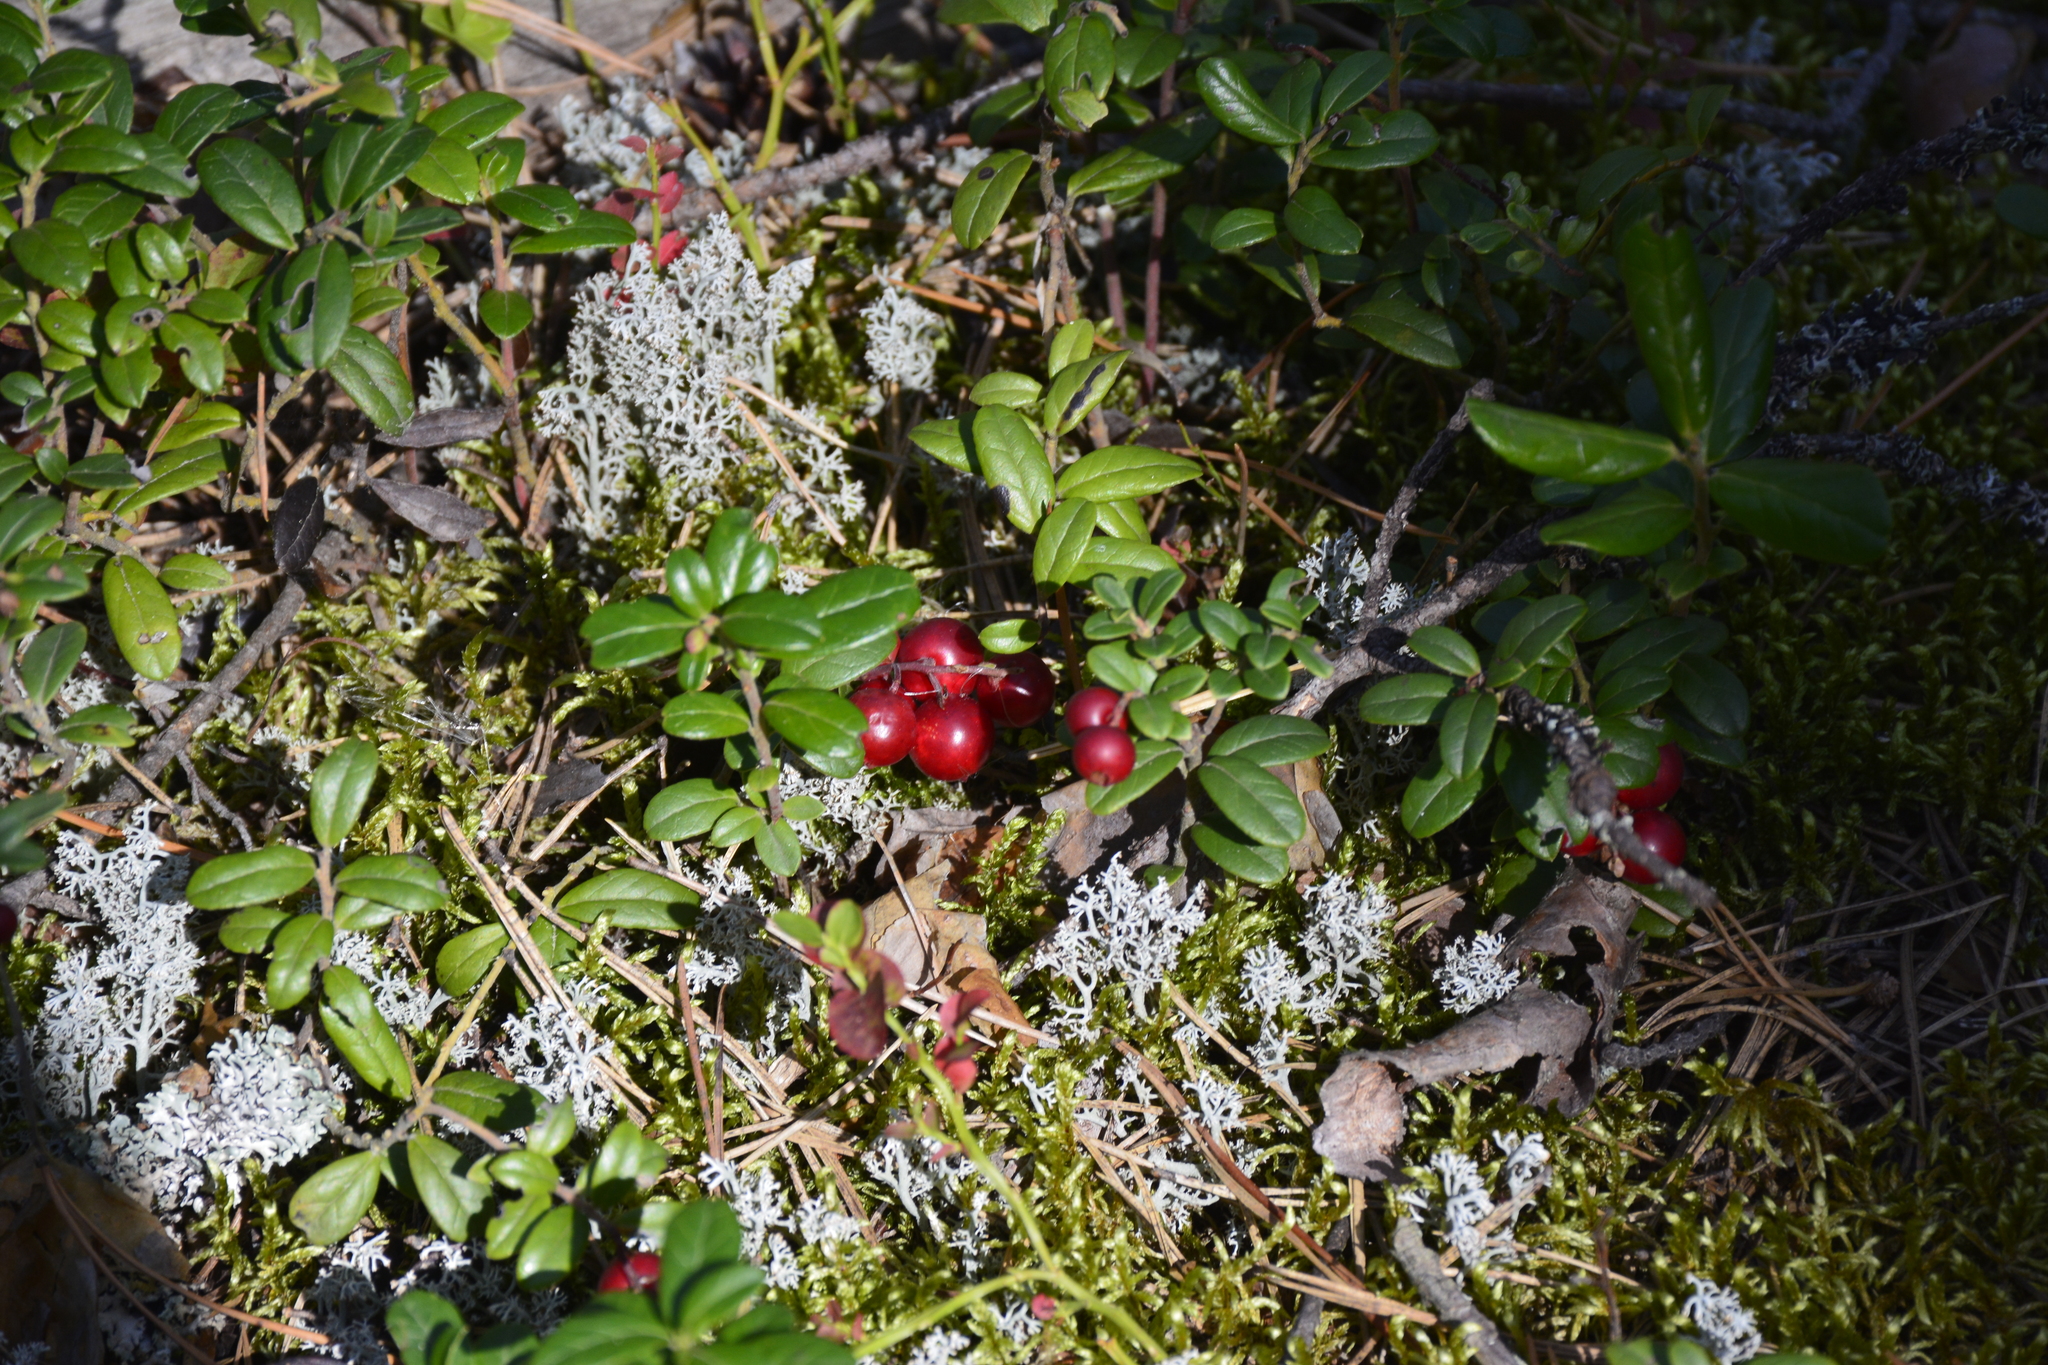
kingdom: Plantae
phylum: Tracheophyta
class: Magnoliopsida
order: Ericales
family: Ericaceae
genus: Vaccinium
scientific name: Vaccinium vitis-idaea
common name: Cowberry
